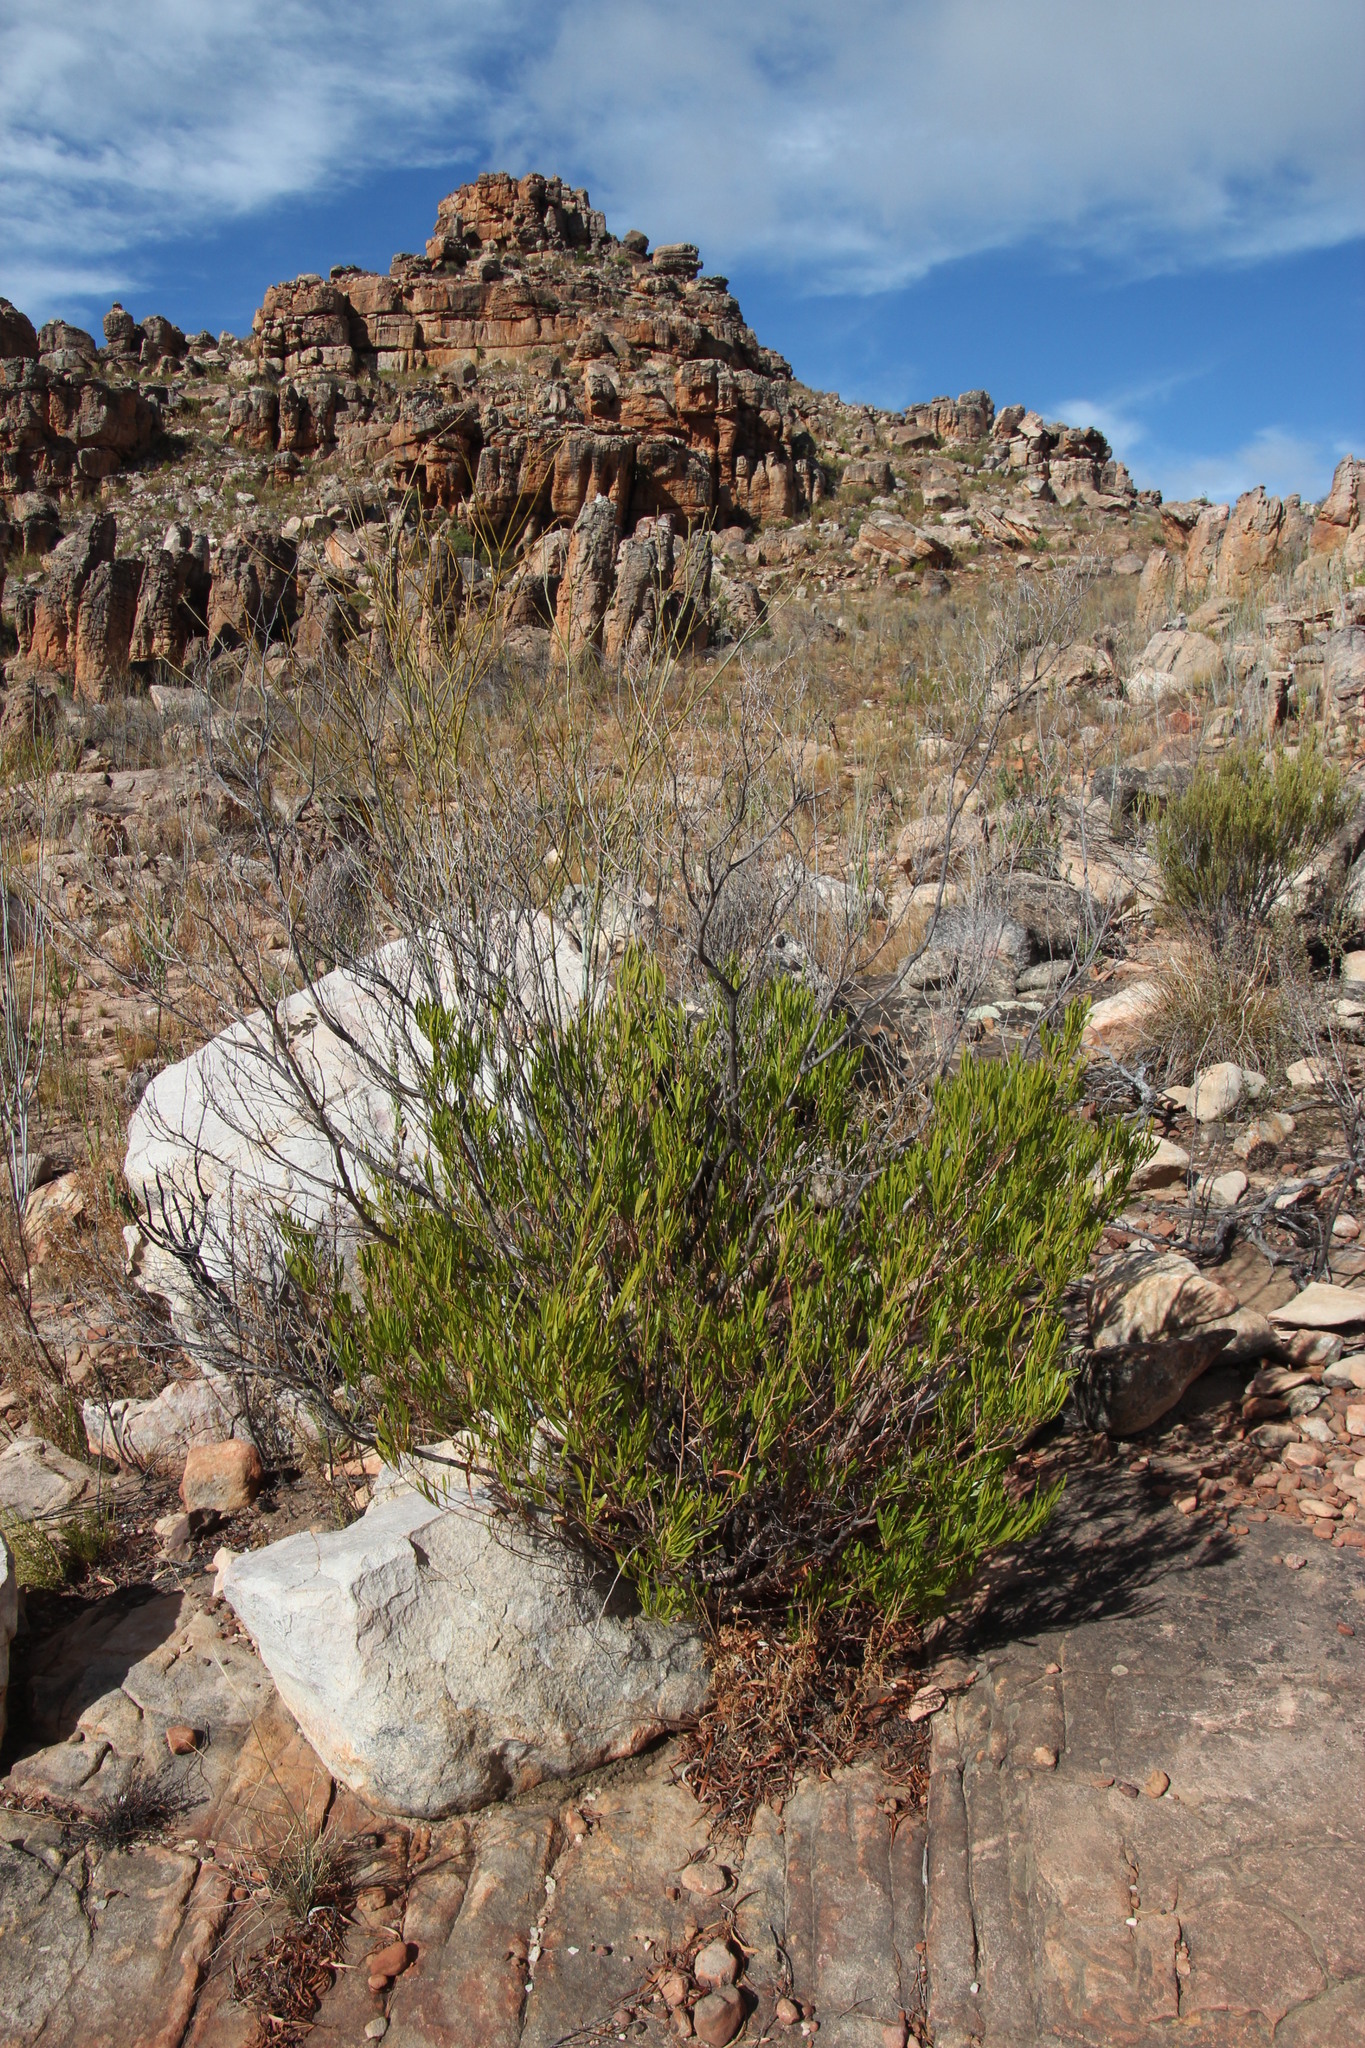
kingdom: Plantae
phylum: Tracheophyta
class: Magnoliopsida
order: Sapindales
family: Sapindaceae
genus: Dodonaea
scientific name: Dodonaea viscosa
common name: Hopbush
